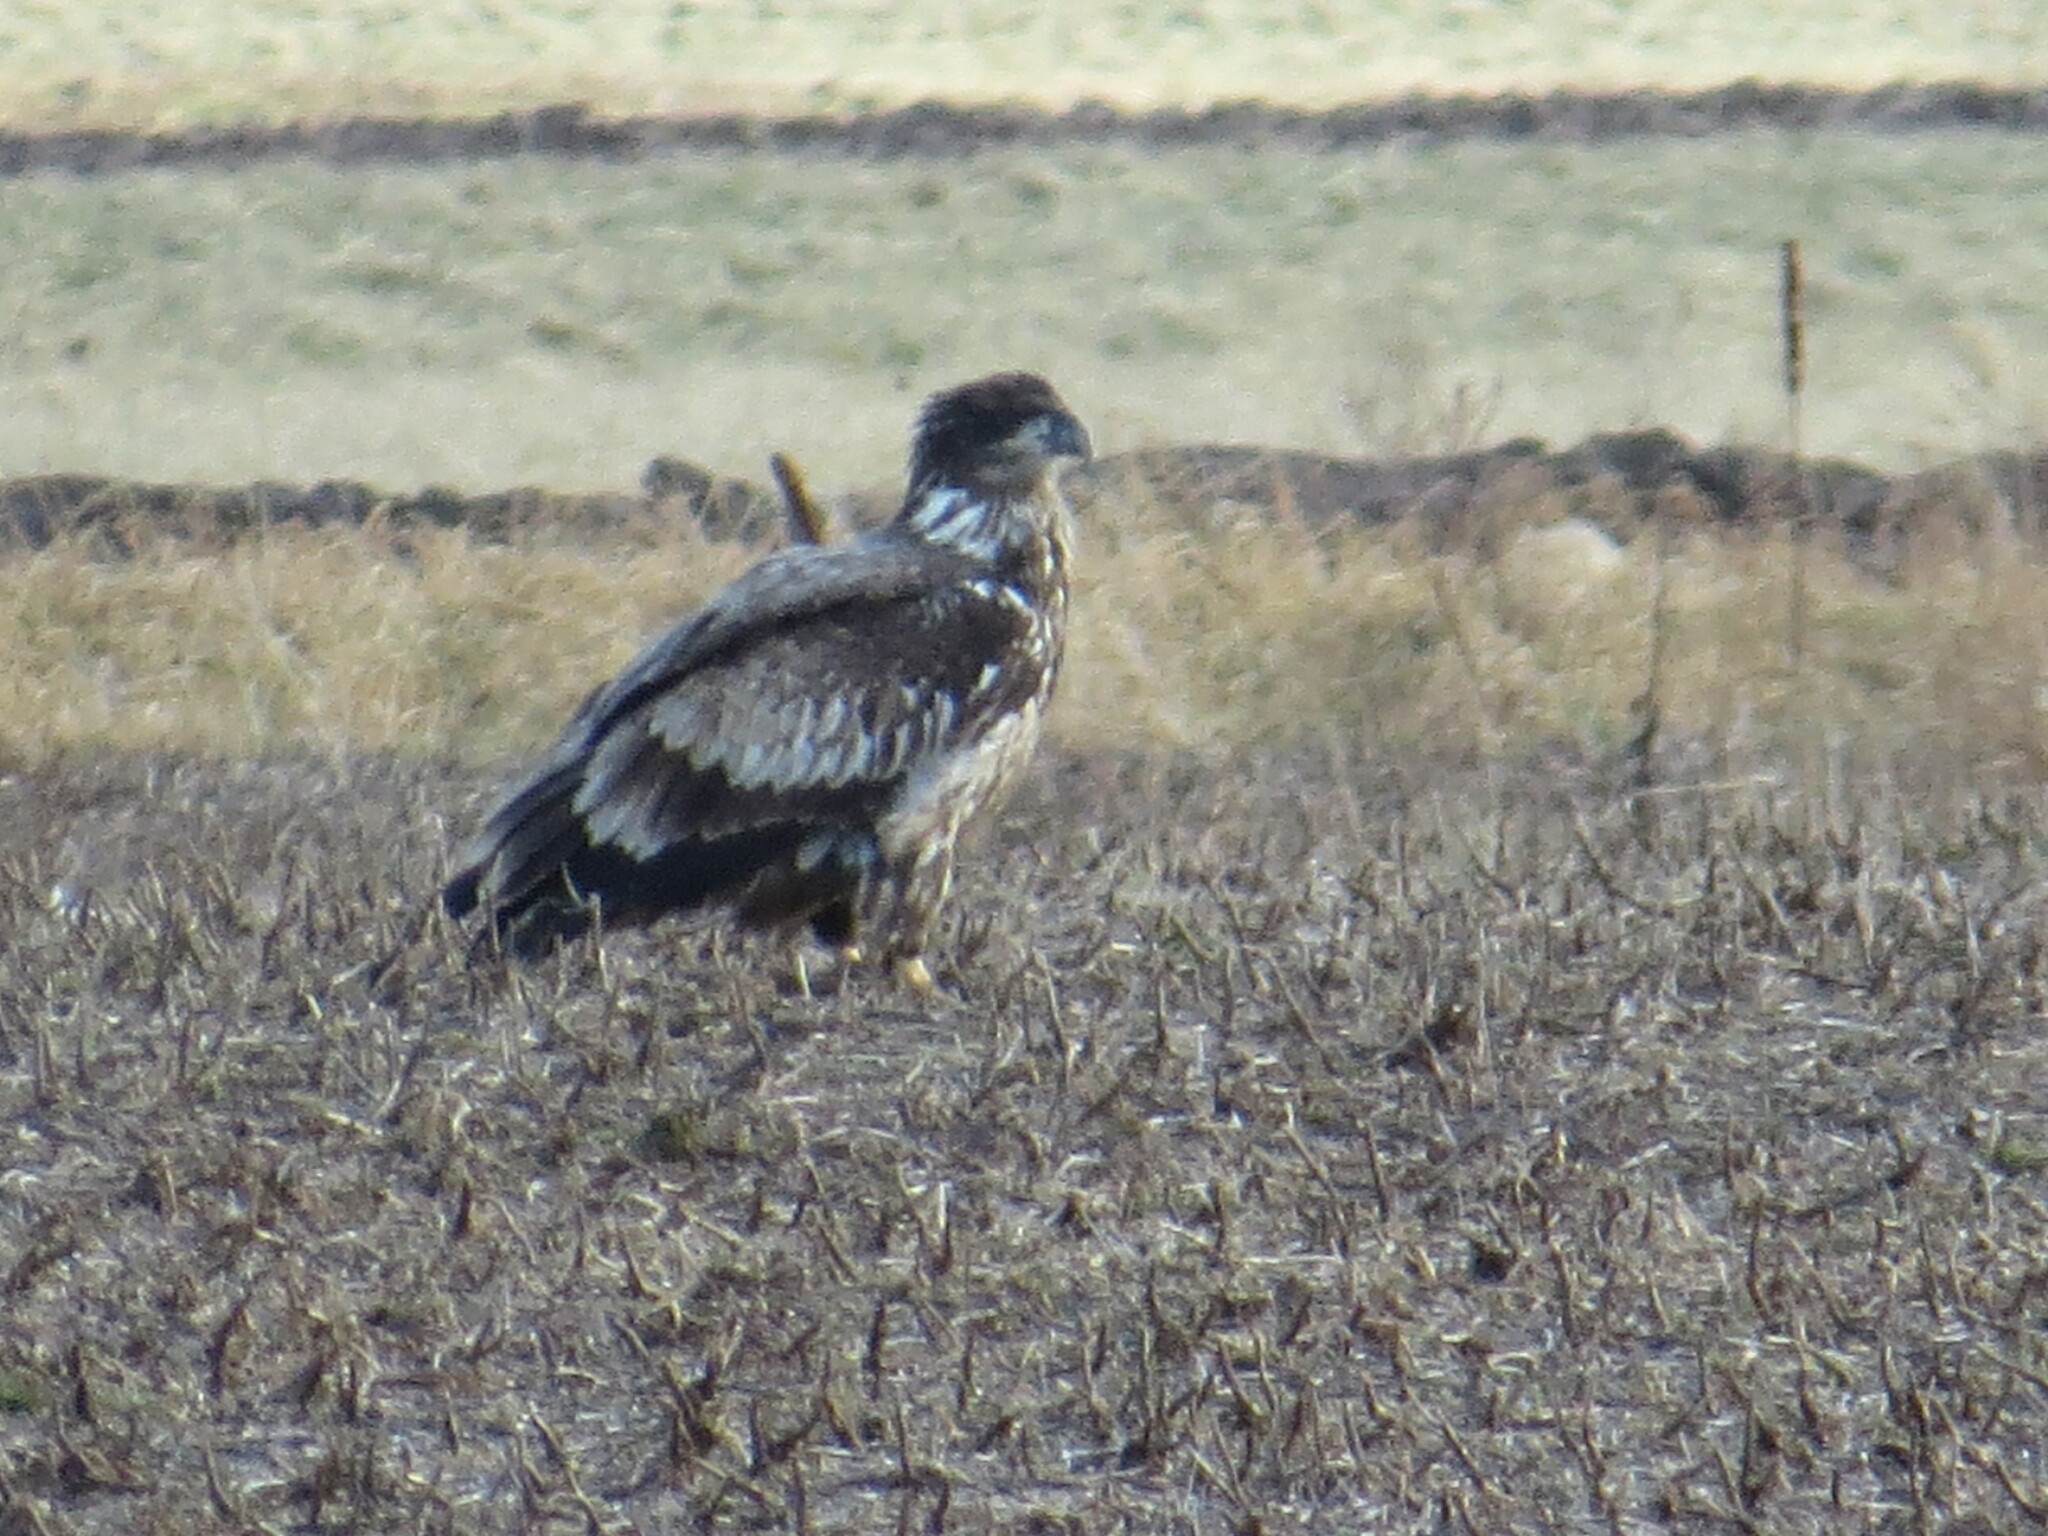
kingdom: Animalia
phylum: Chordata
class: Aves
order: Accipitriformes
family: Accipitridae
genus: Haliaeetus
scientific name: Haliaeetus leucocephalus
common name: Bald eagle
